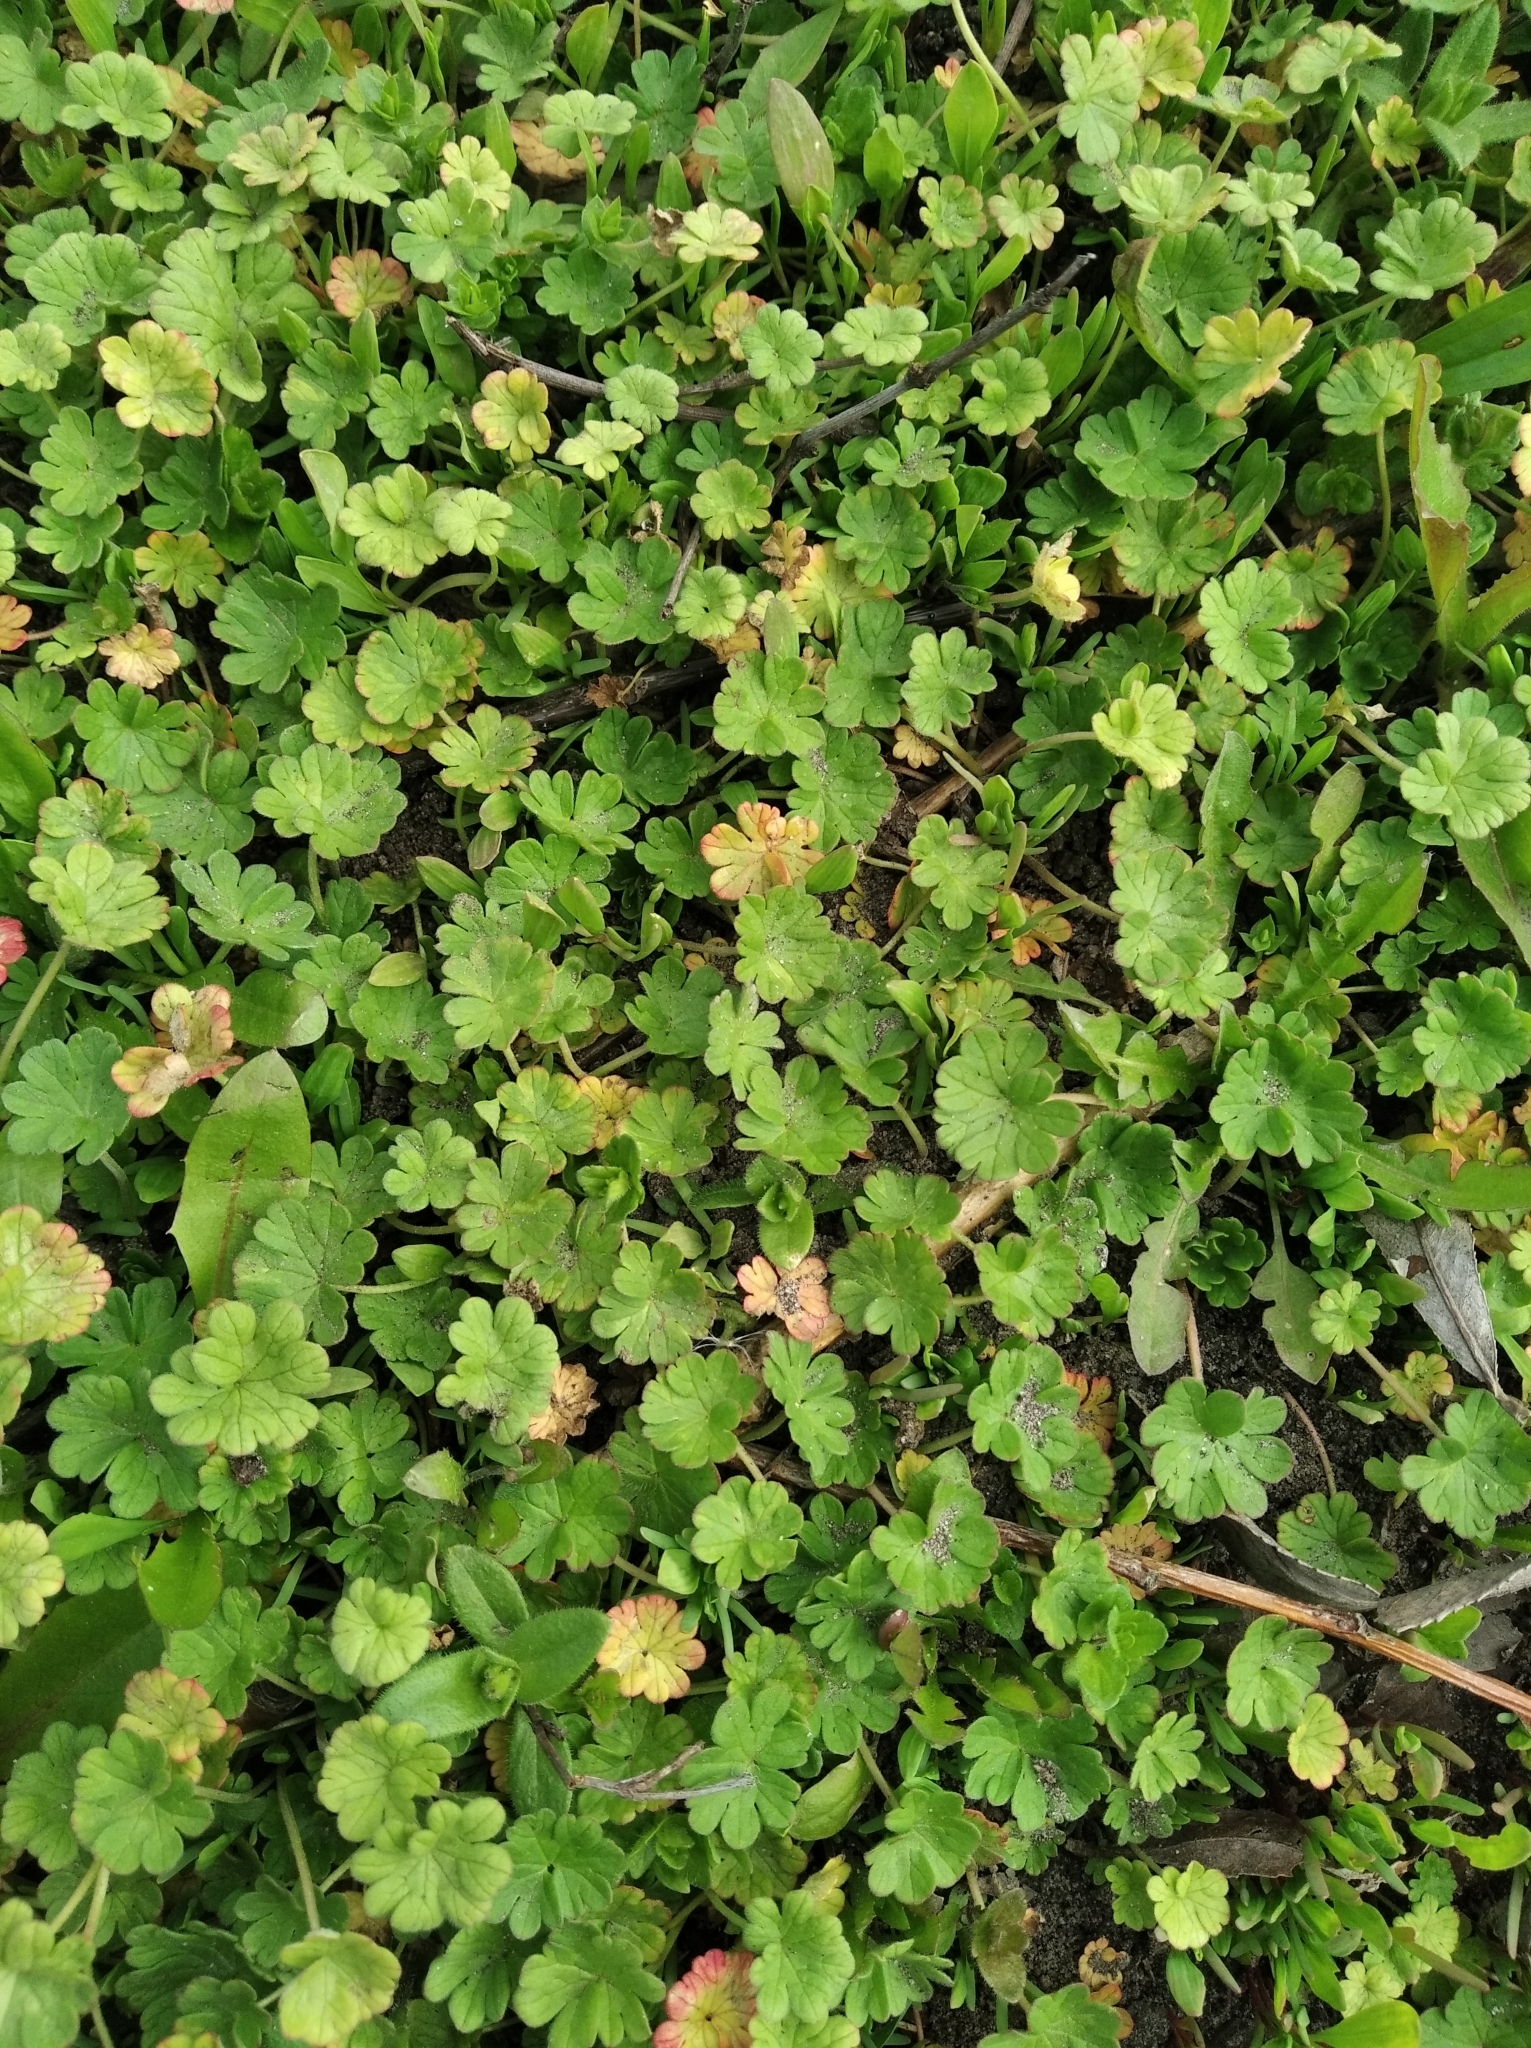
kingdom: Plantae
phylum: Tracheophyta
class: Magnoliopsida
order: Geraniales
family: Geraniaceae
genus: Geranium
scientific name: Geranium pusillum
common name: Small geranium
